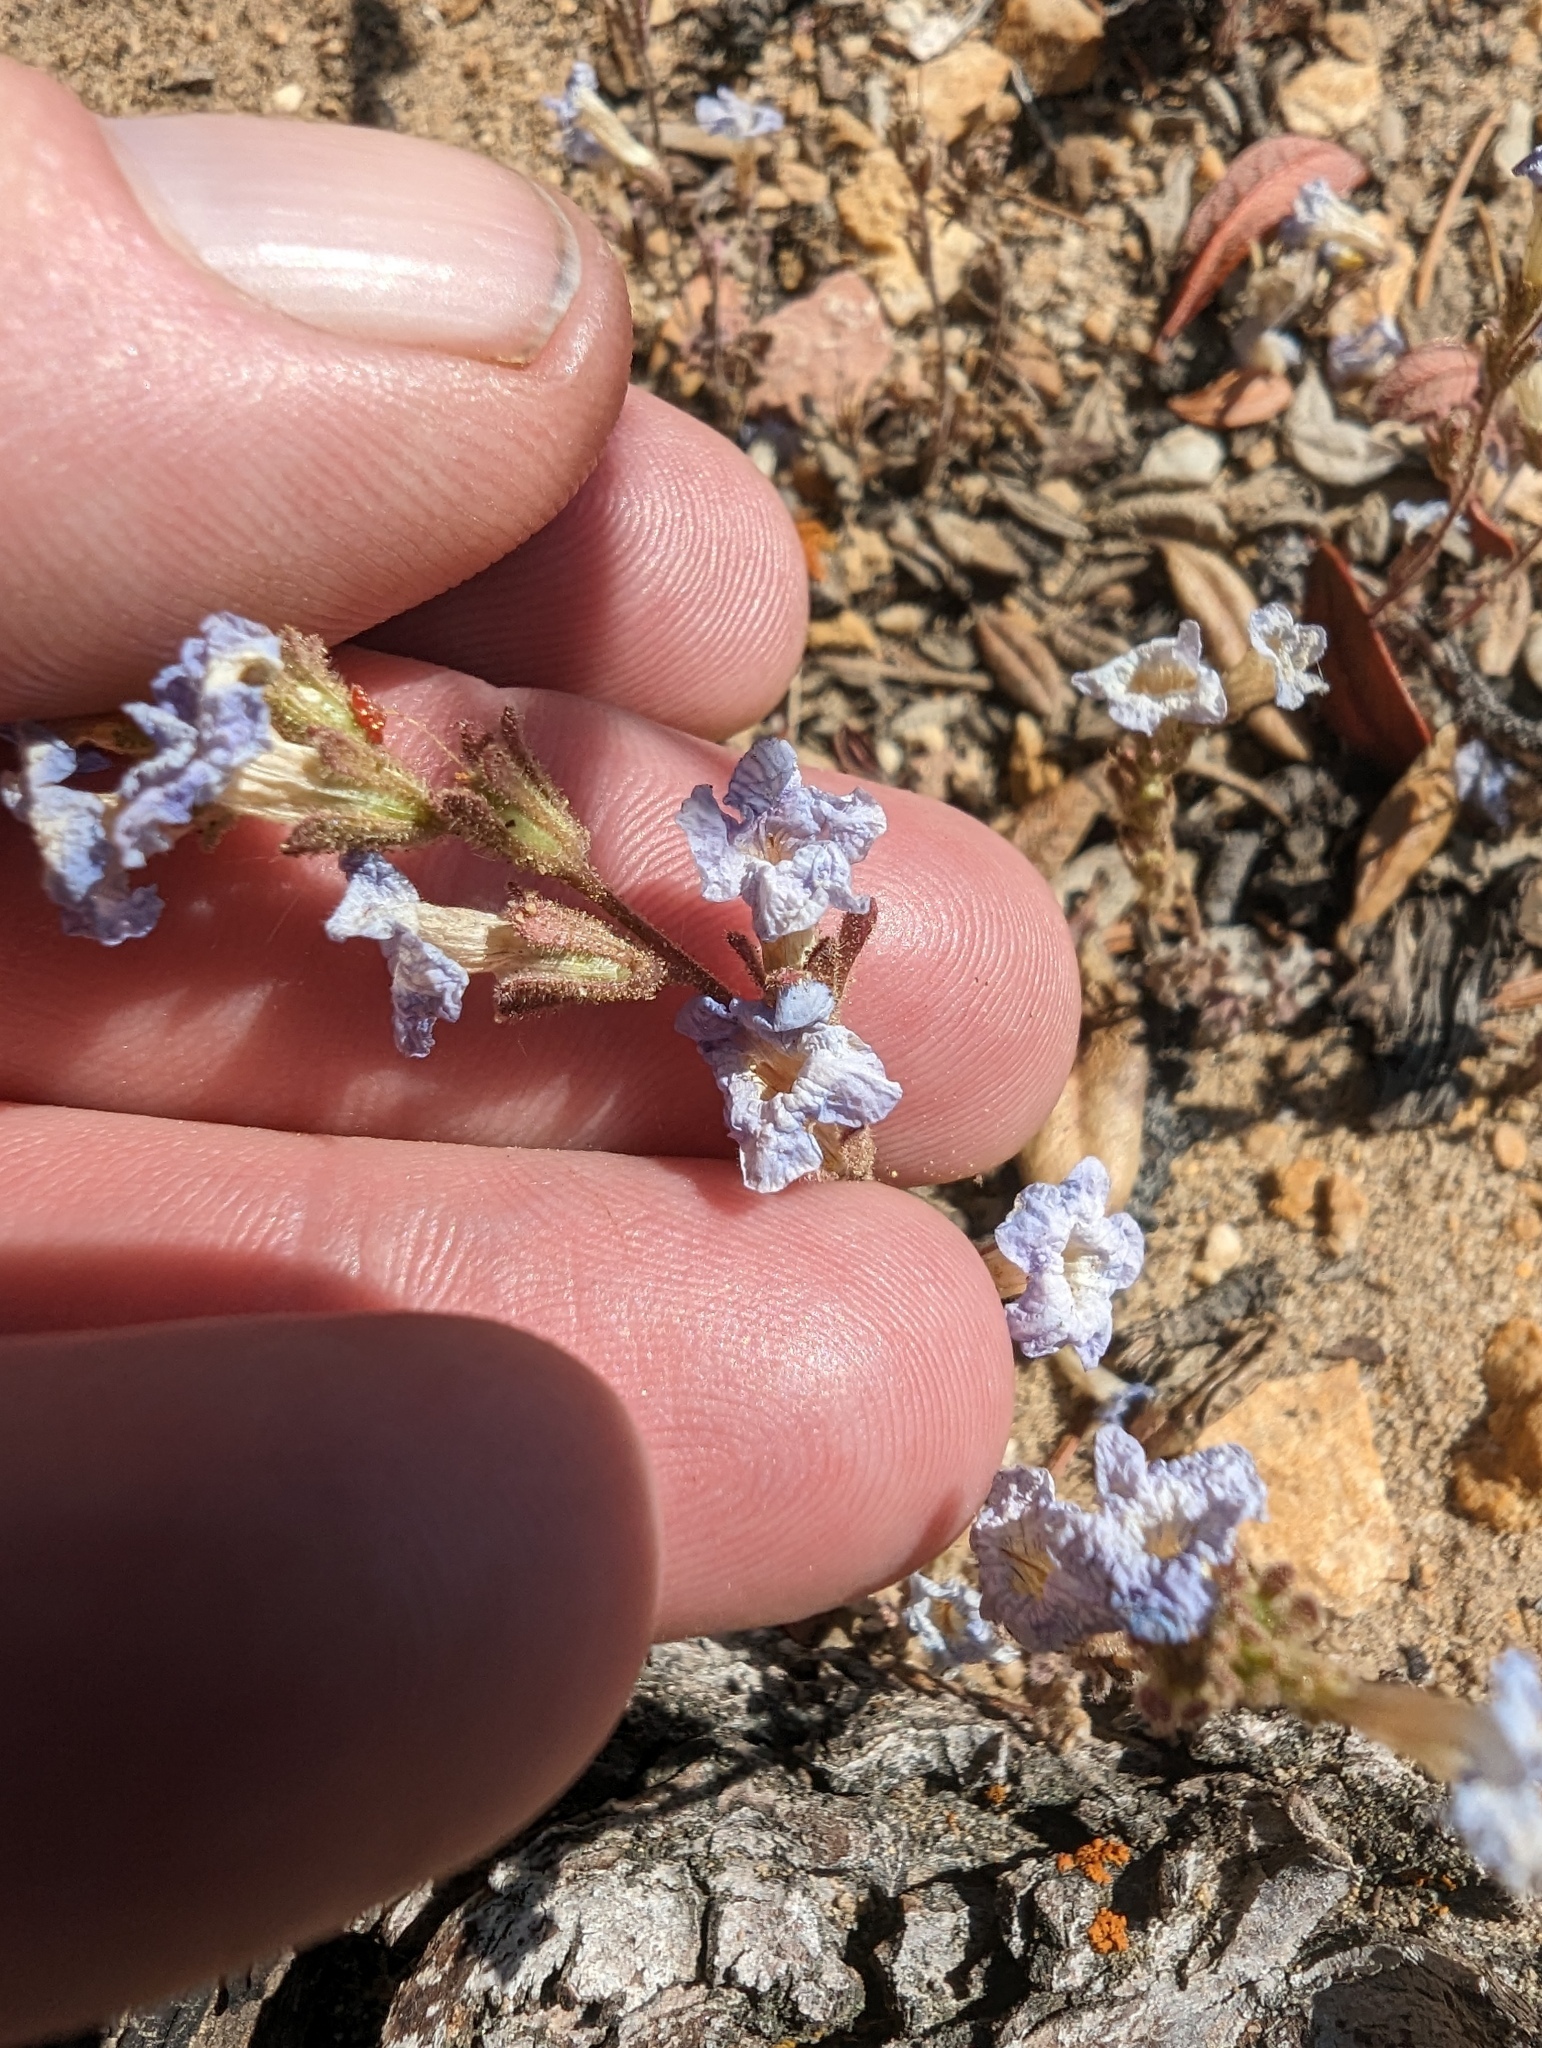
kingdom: Plantae
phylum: Tracheophyta
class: Magnoliopsida
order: Boraginales
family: Hydrophyllaceae
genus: Phacelia
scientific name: Phacelia fremontii
